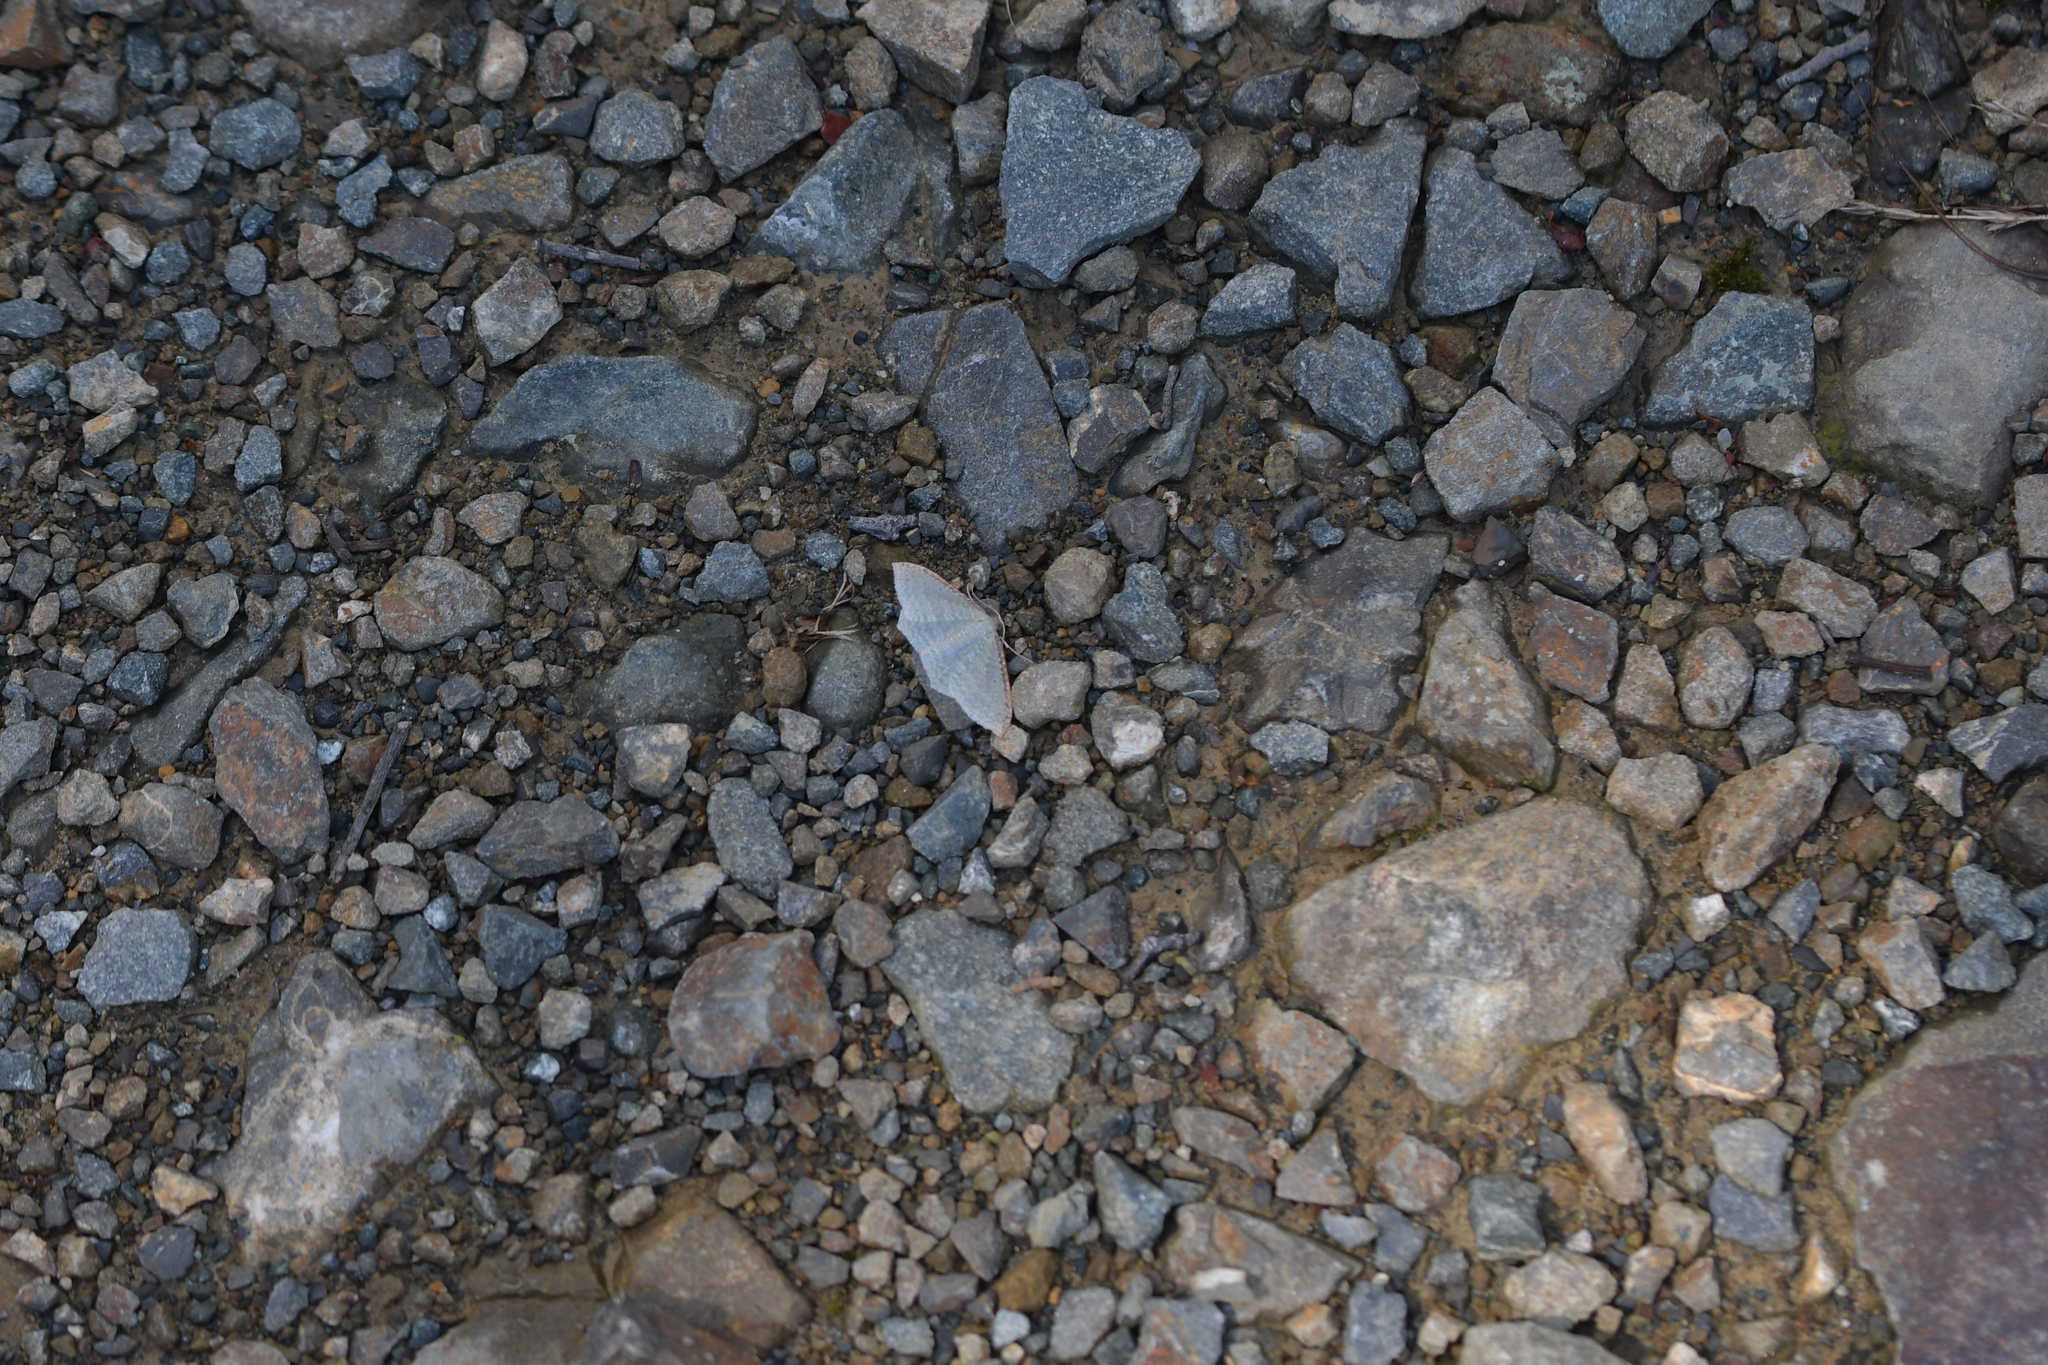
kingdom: Animalia
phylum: Arthropoda
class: Insecta
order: Lepidoptera
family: Geometridae
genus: Poecilasthena
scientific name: Poecilasthena pulchraria
